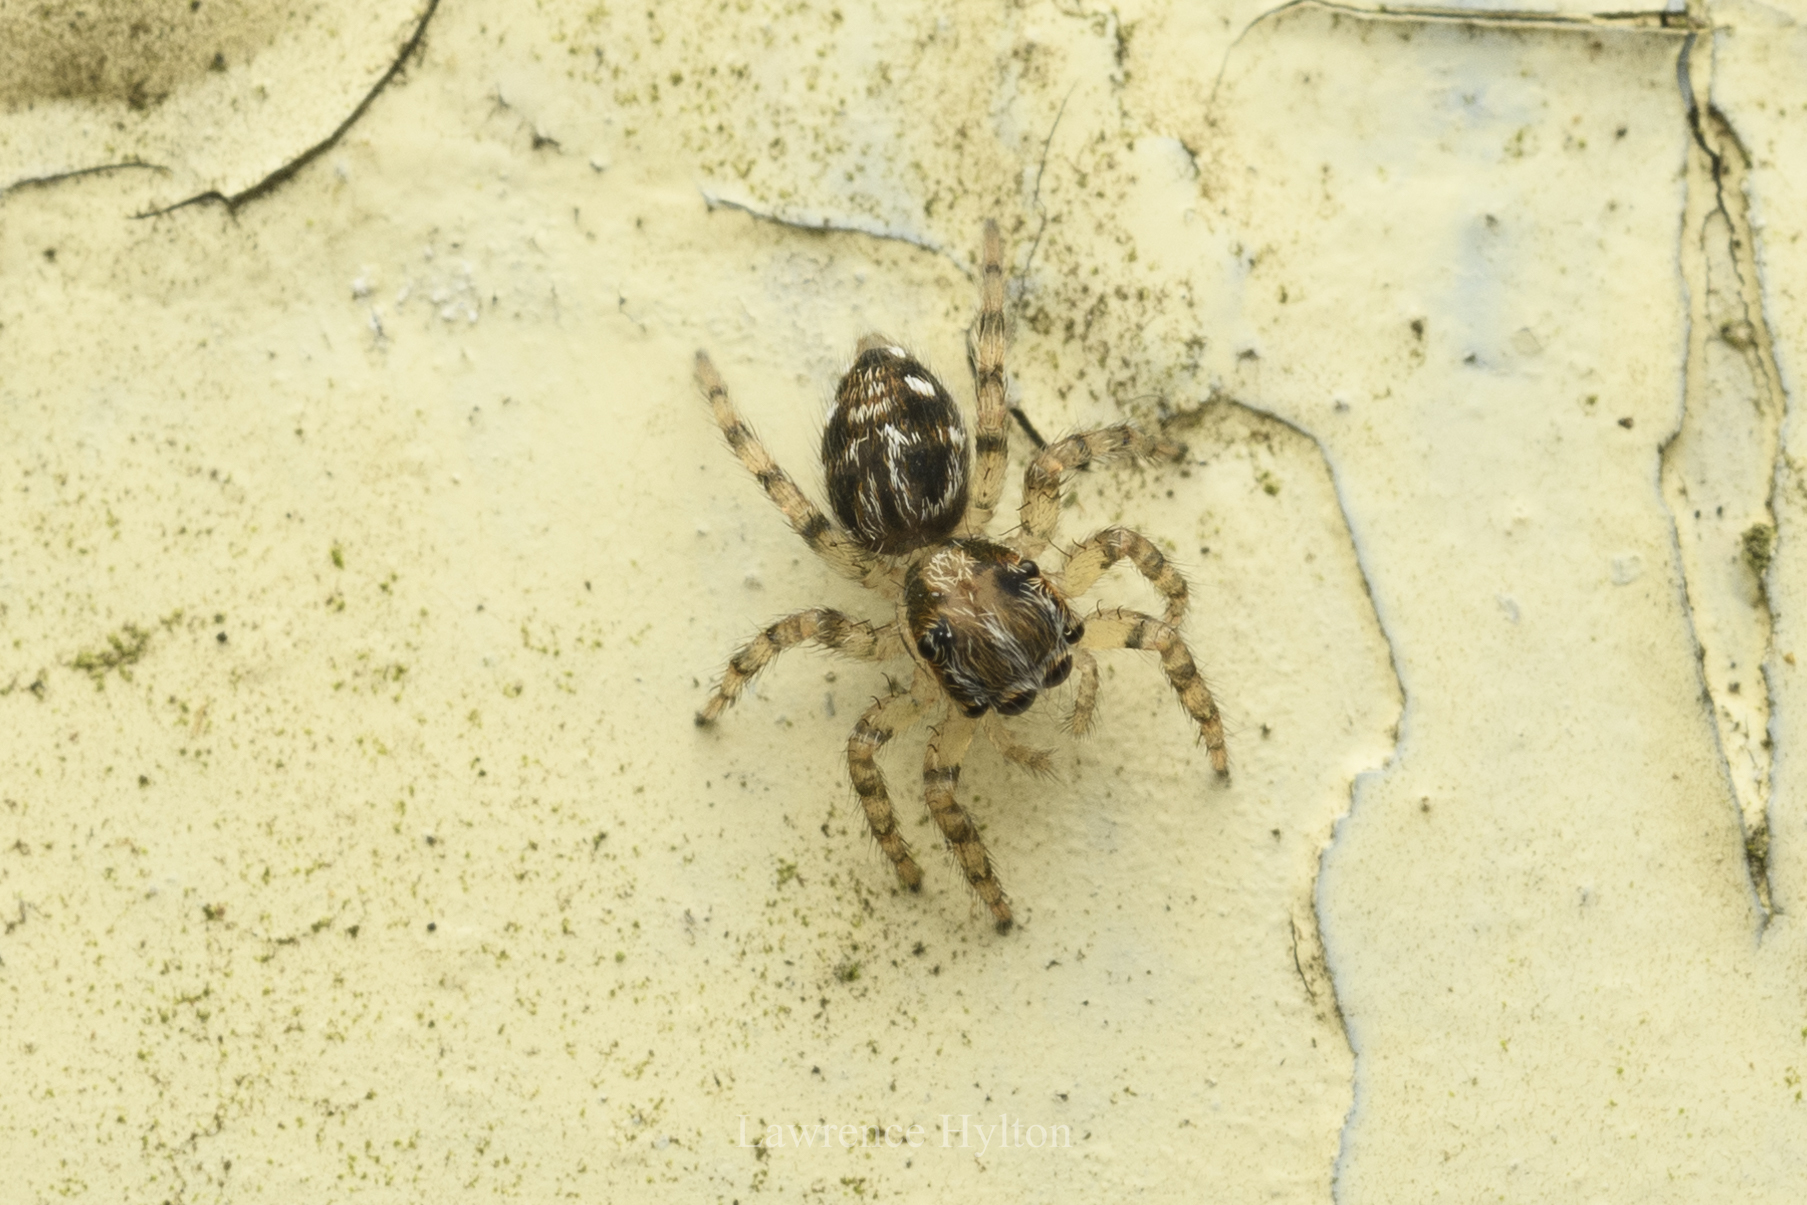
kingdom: Animalia
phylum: Arthropoda
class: Arachnida
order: Araneae
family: Salticidae
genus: Plexippus
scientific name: Plexippus paykulli
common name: Pantropical jumper
